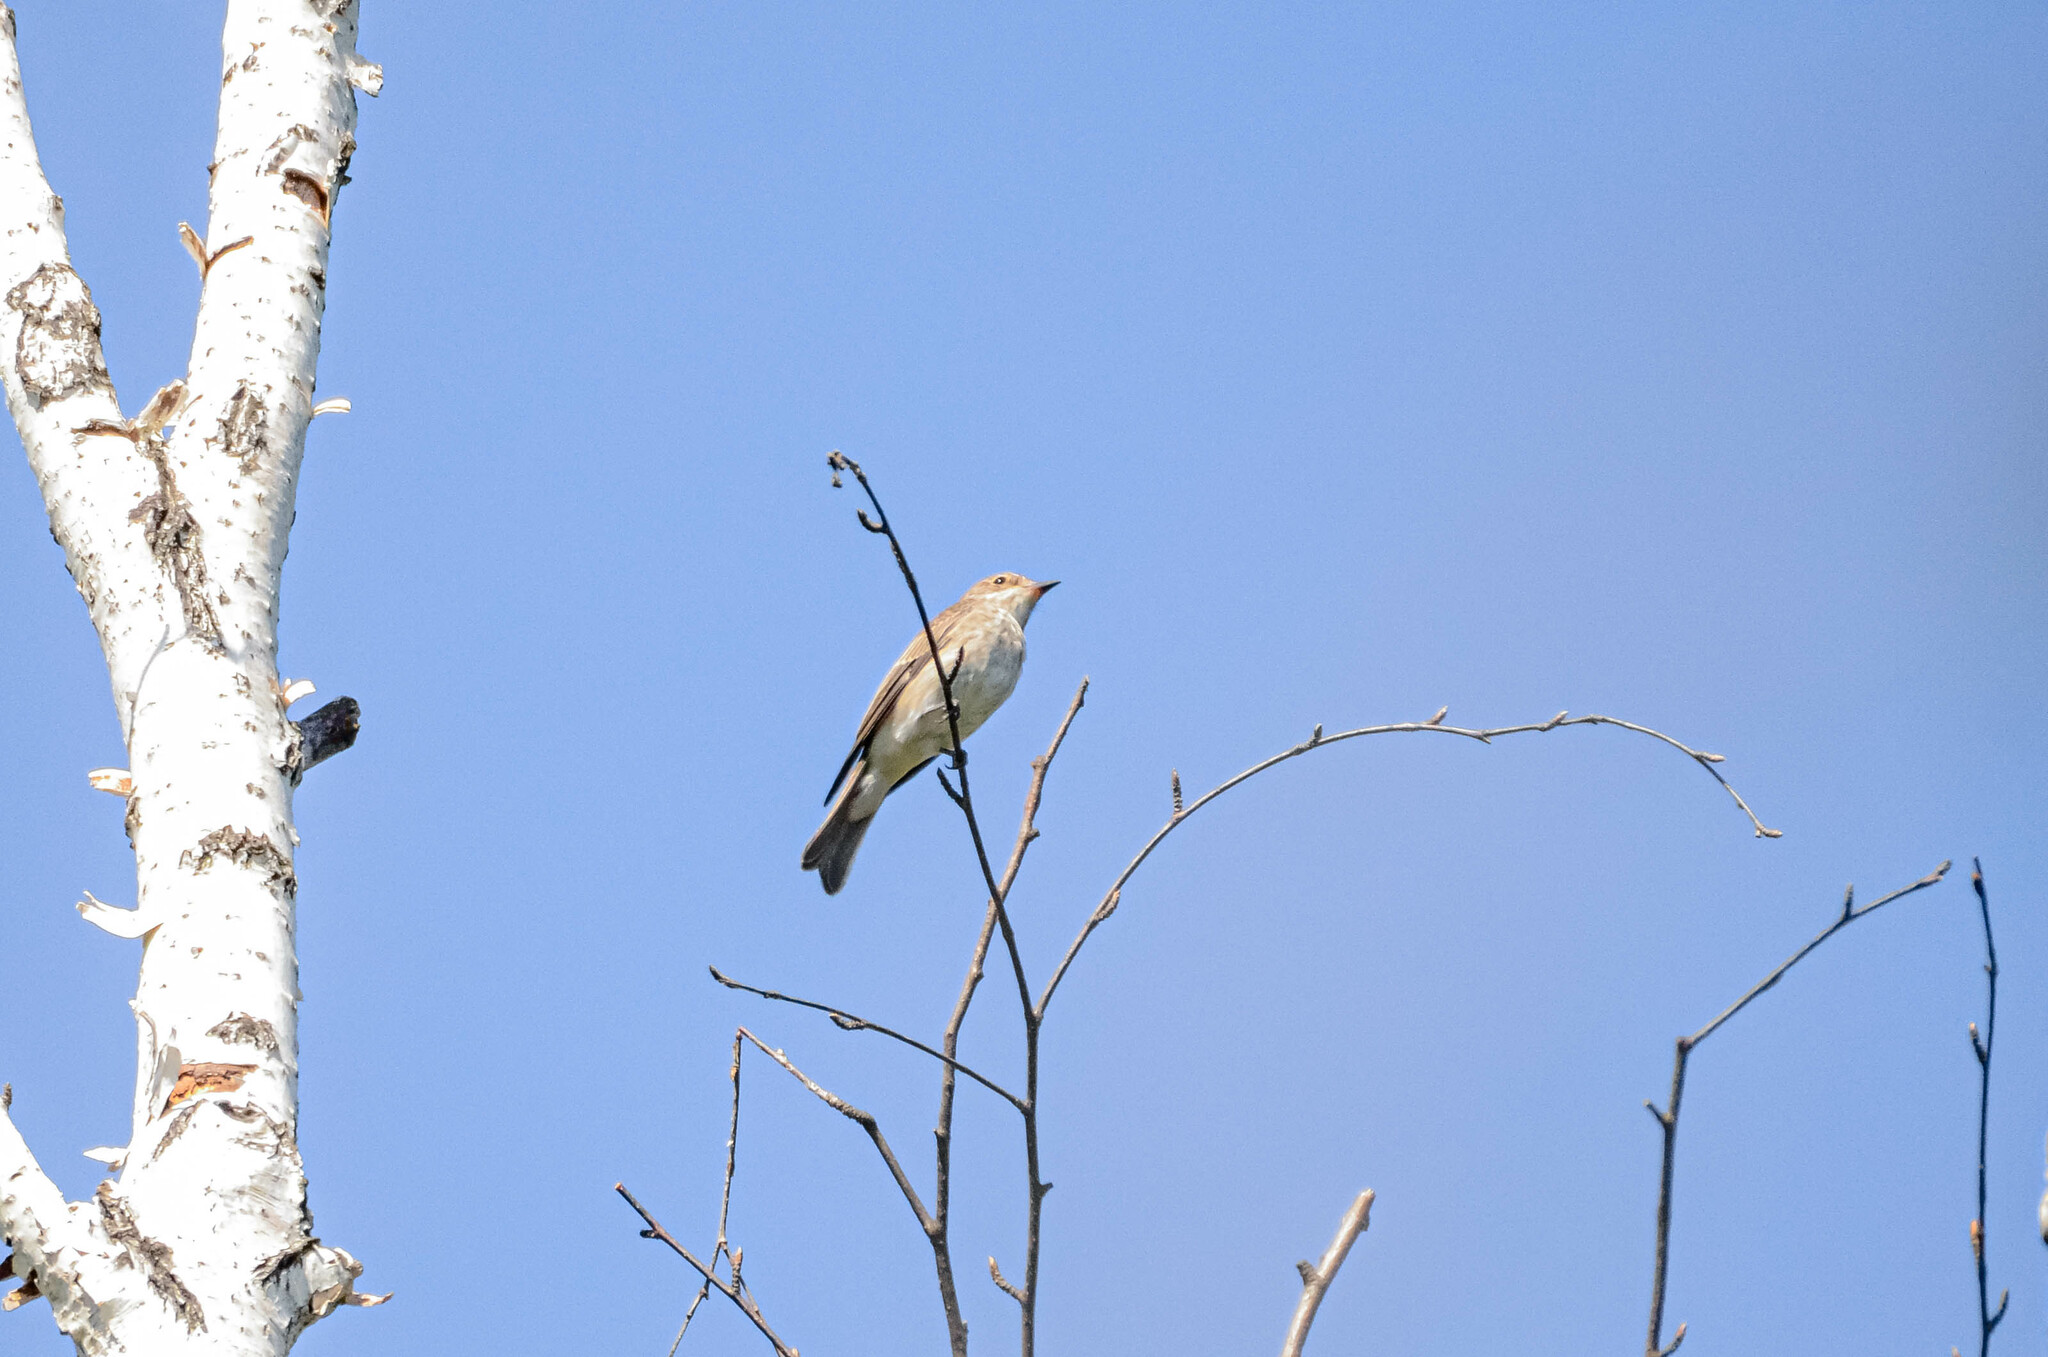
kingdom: Animalia
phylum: Chordata
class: Aves
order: Passeriformes
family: Muscicapidae
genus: Muscicapa
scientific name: Muscicapa striata
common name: Spotted flycatcher
